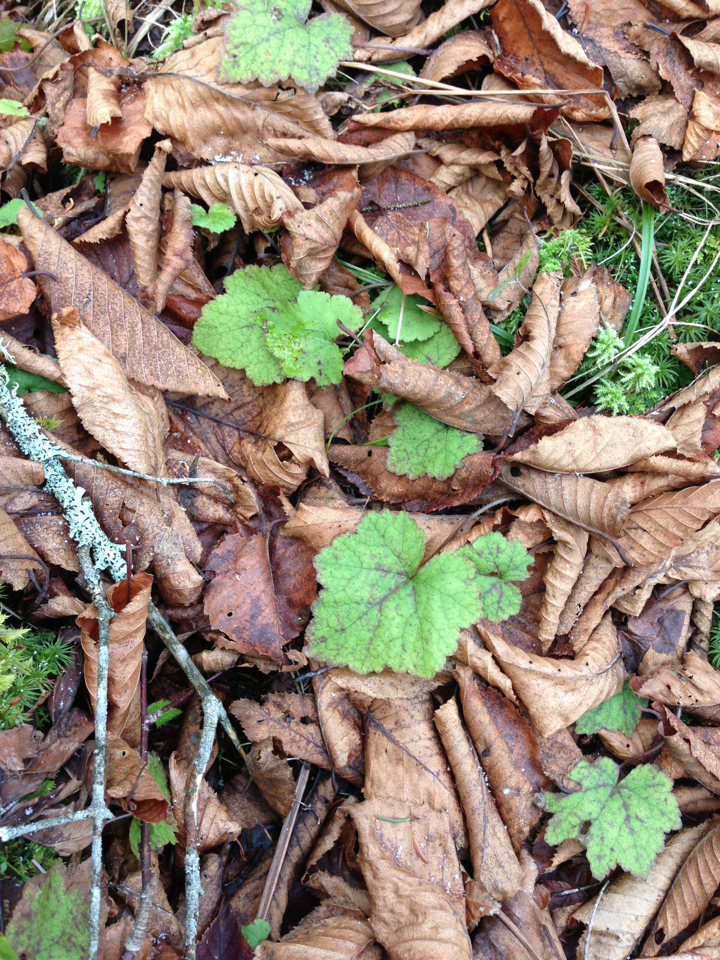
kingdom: Plantae
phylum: Tracheophyta
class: Magnoliopsida
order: Saxifragales
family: Saxifragaceae
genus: Tiarella
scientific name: Tiarella stolonifera
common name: Stoloniferous foamflower
